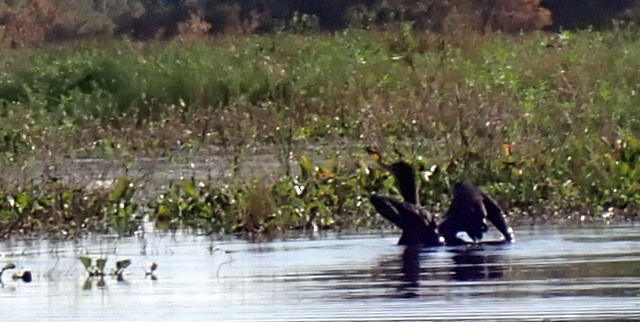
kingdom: Animalia
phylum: Chordata
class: Aves
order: Suliformes
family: Phalacrocoracidae
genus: Phalacrocorax
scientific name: Phalacrocorax auritus
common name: Double-crested cormorant
